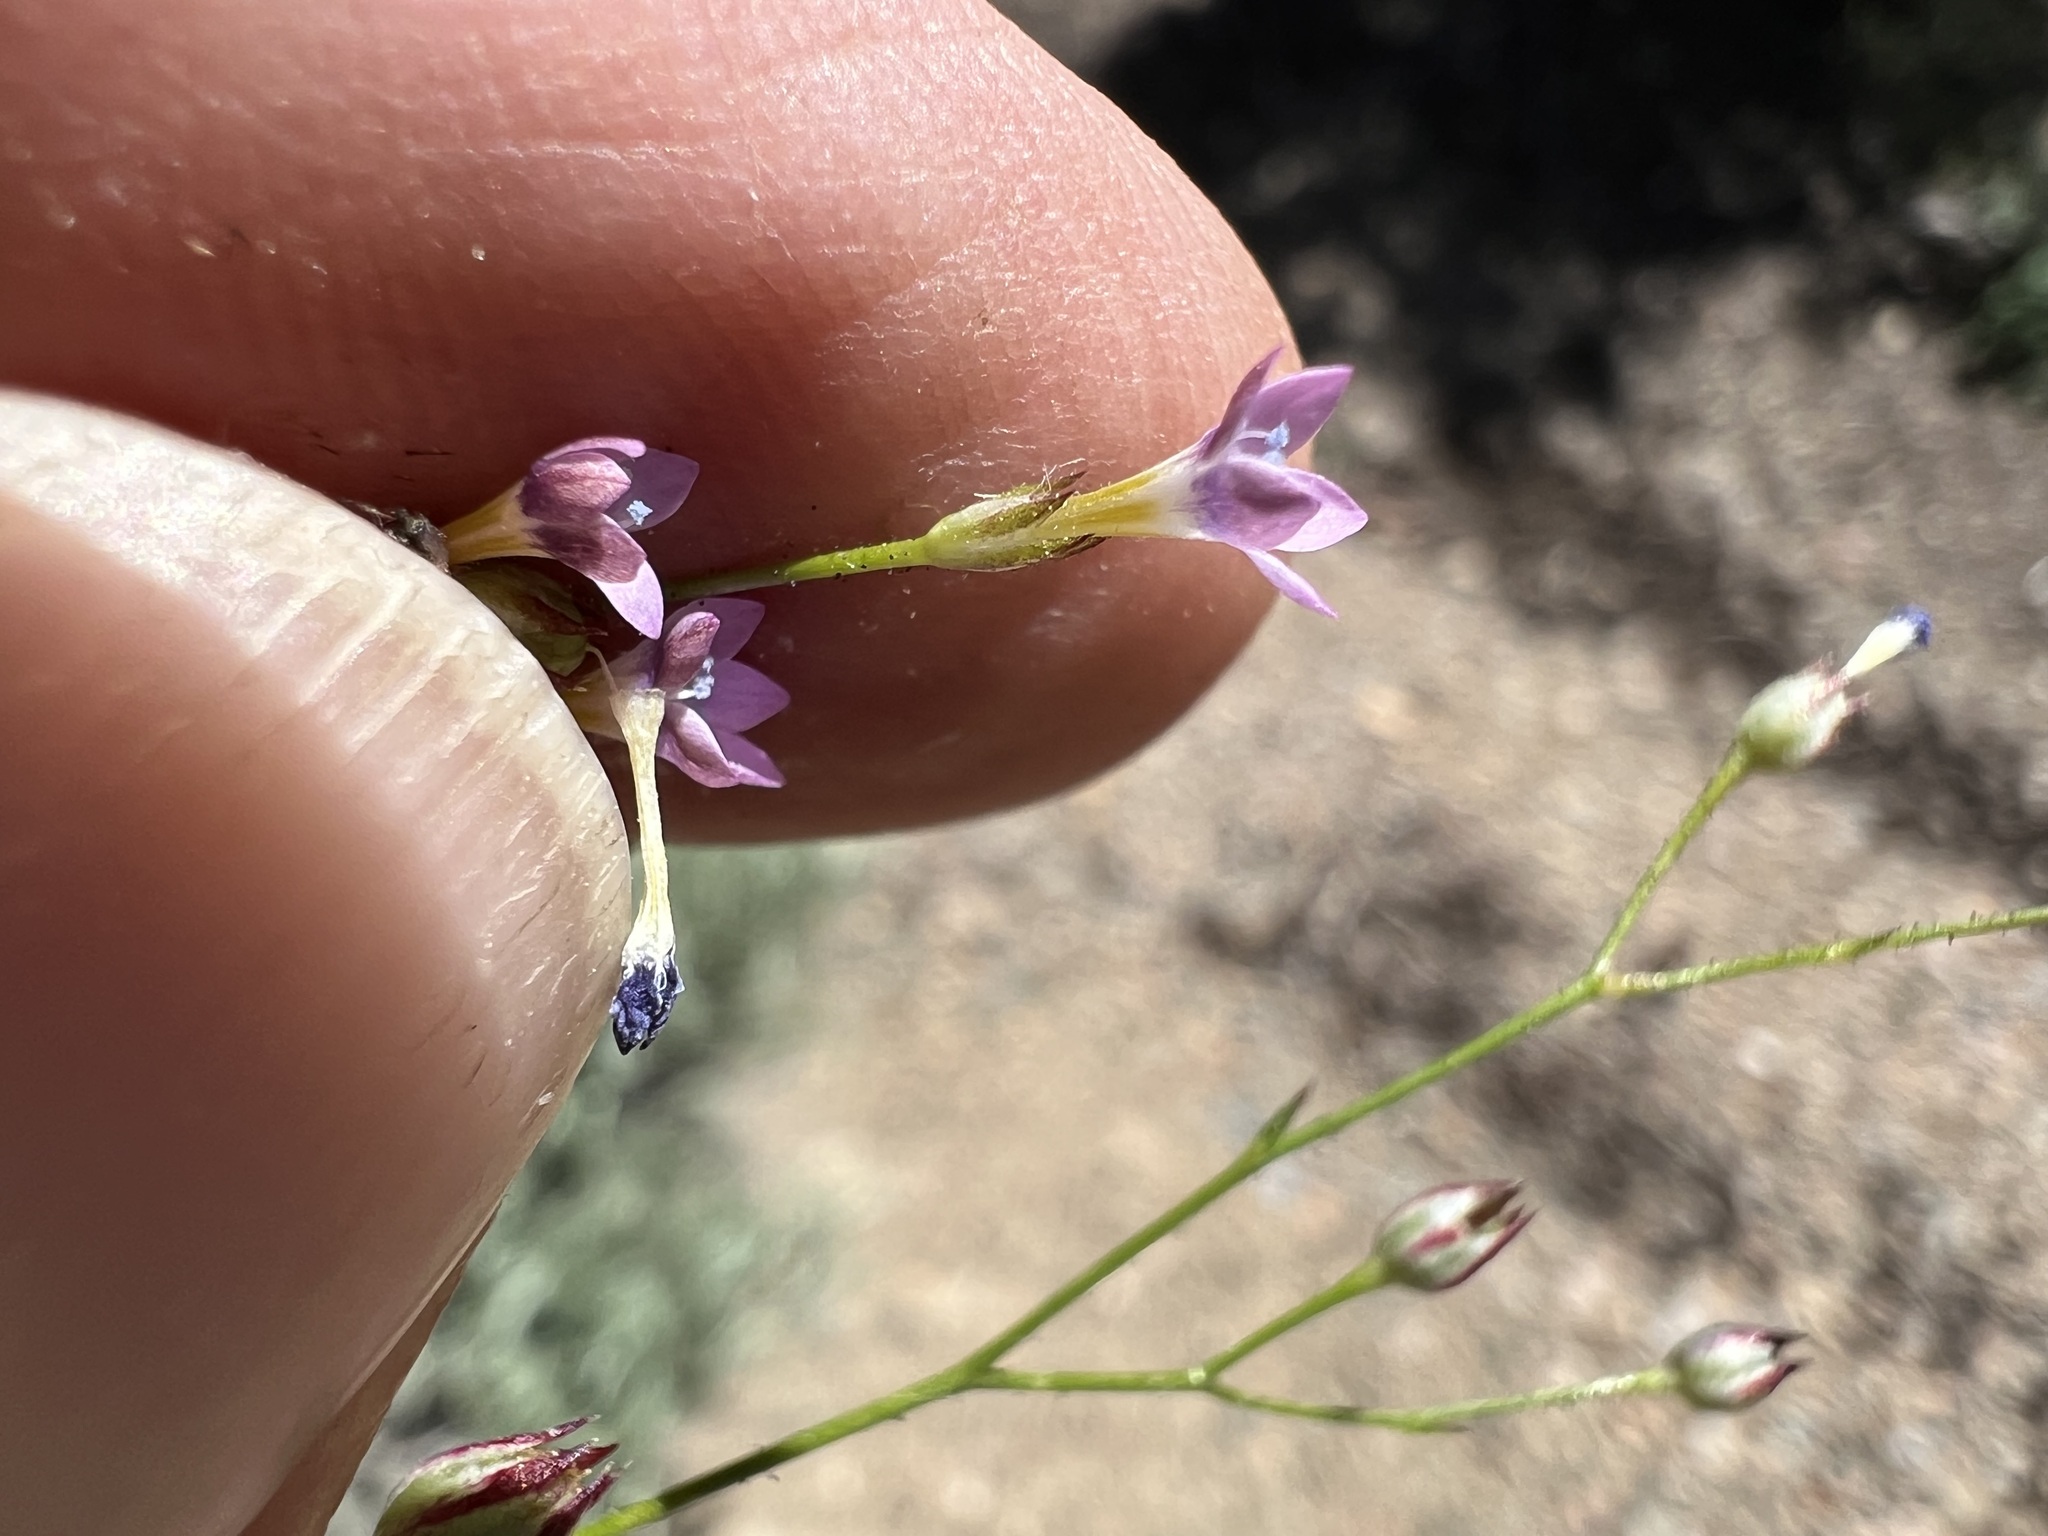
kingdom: Plantae
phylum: Tracheophyta
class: Magnoliopsida
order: Ericales
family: Polemoniaceae
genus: Gilia
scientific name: Gilia ophthalmoides
